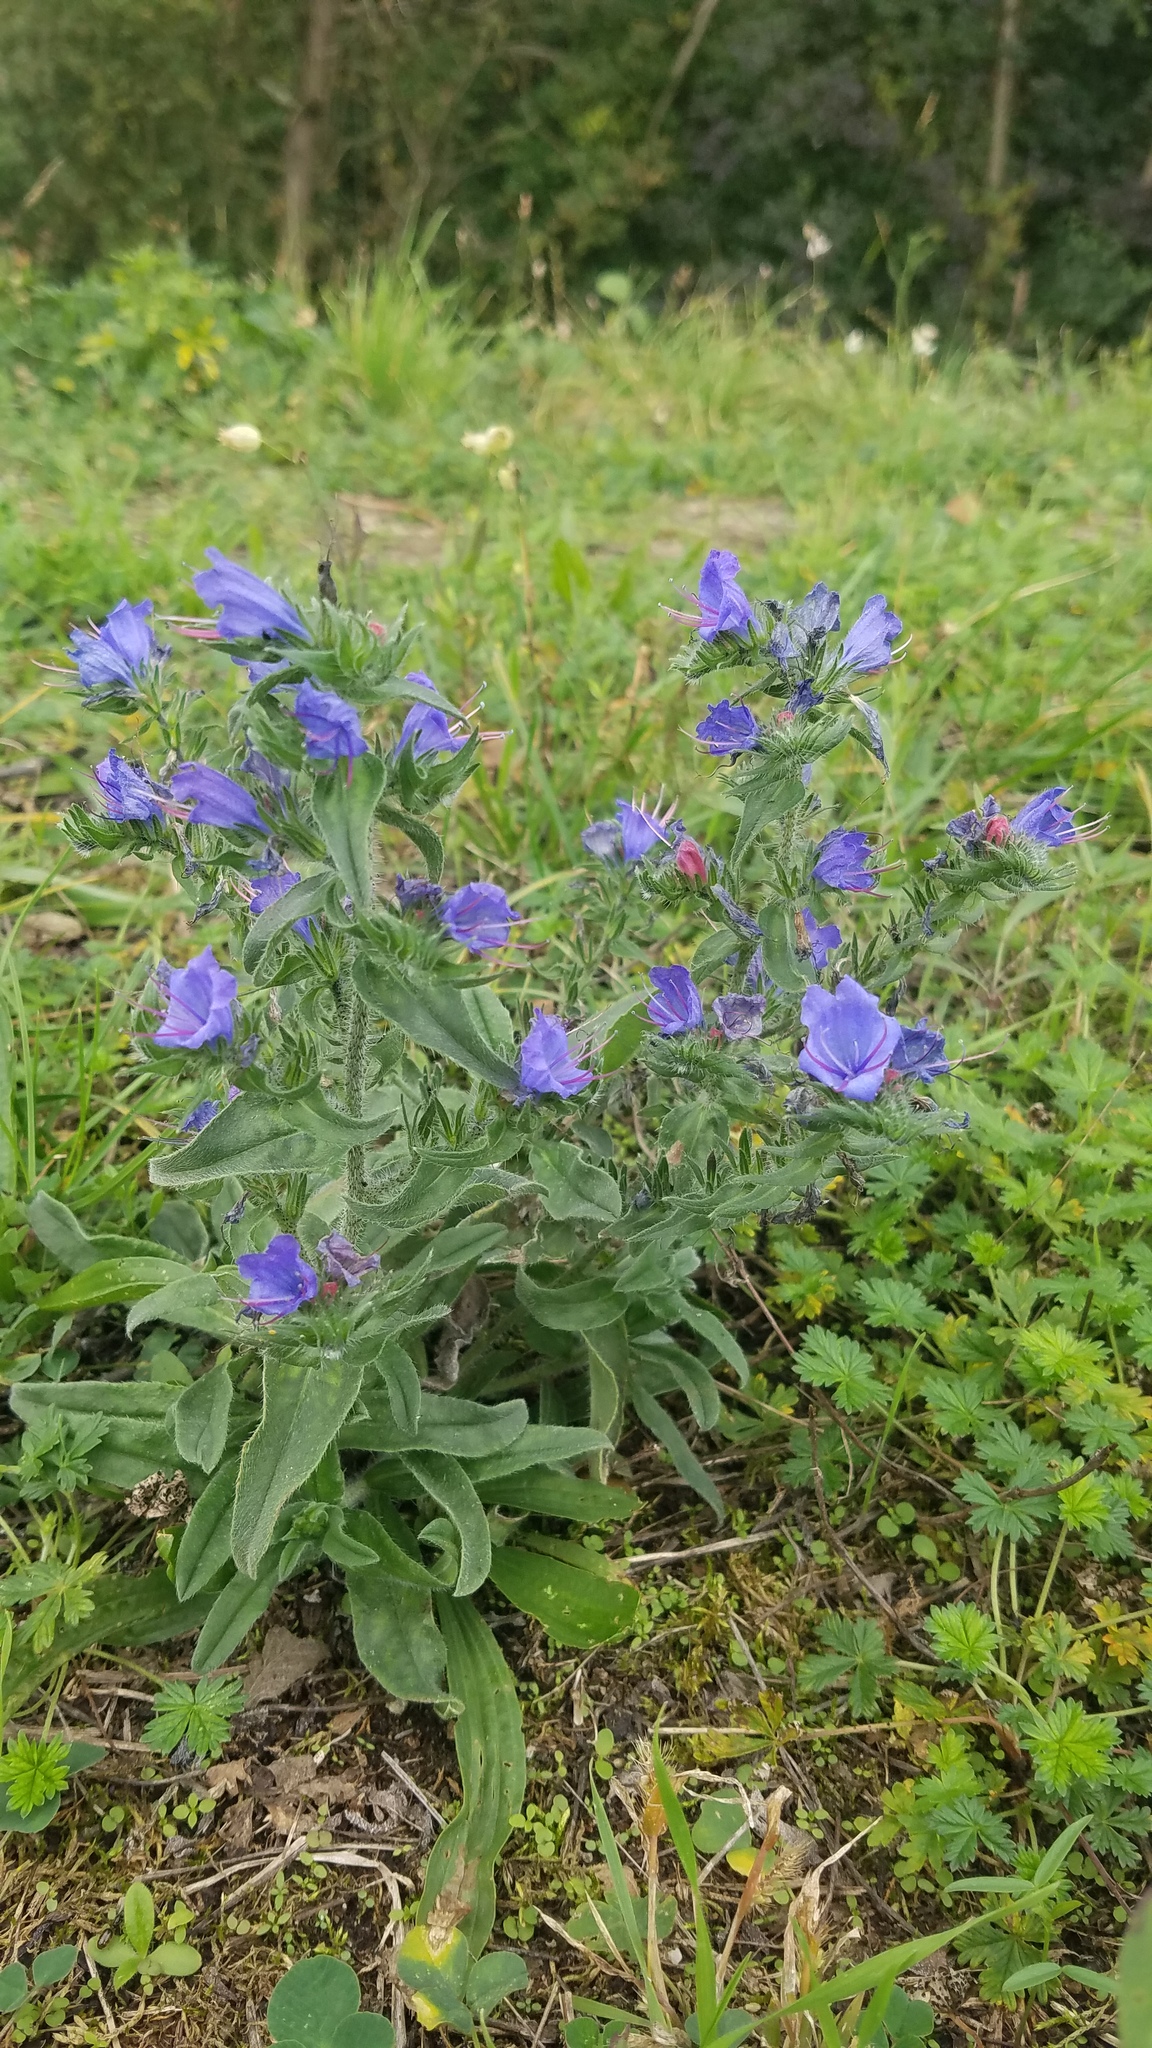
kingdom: Plantae
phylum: Tracheophyta
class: Magnoliopsida
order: Boraginales
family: Boraginaceae
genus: Echium
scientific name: Echium vulgare
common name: Common viper's bugloss
